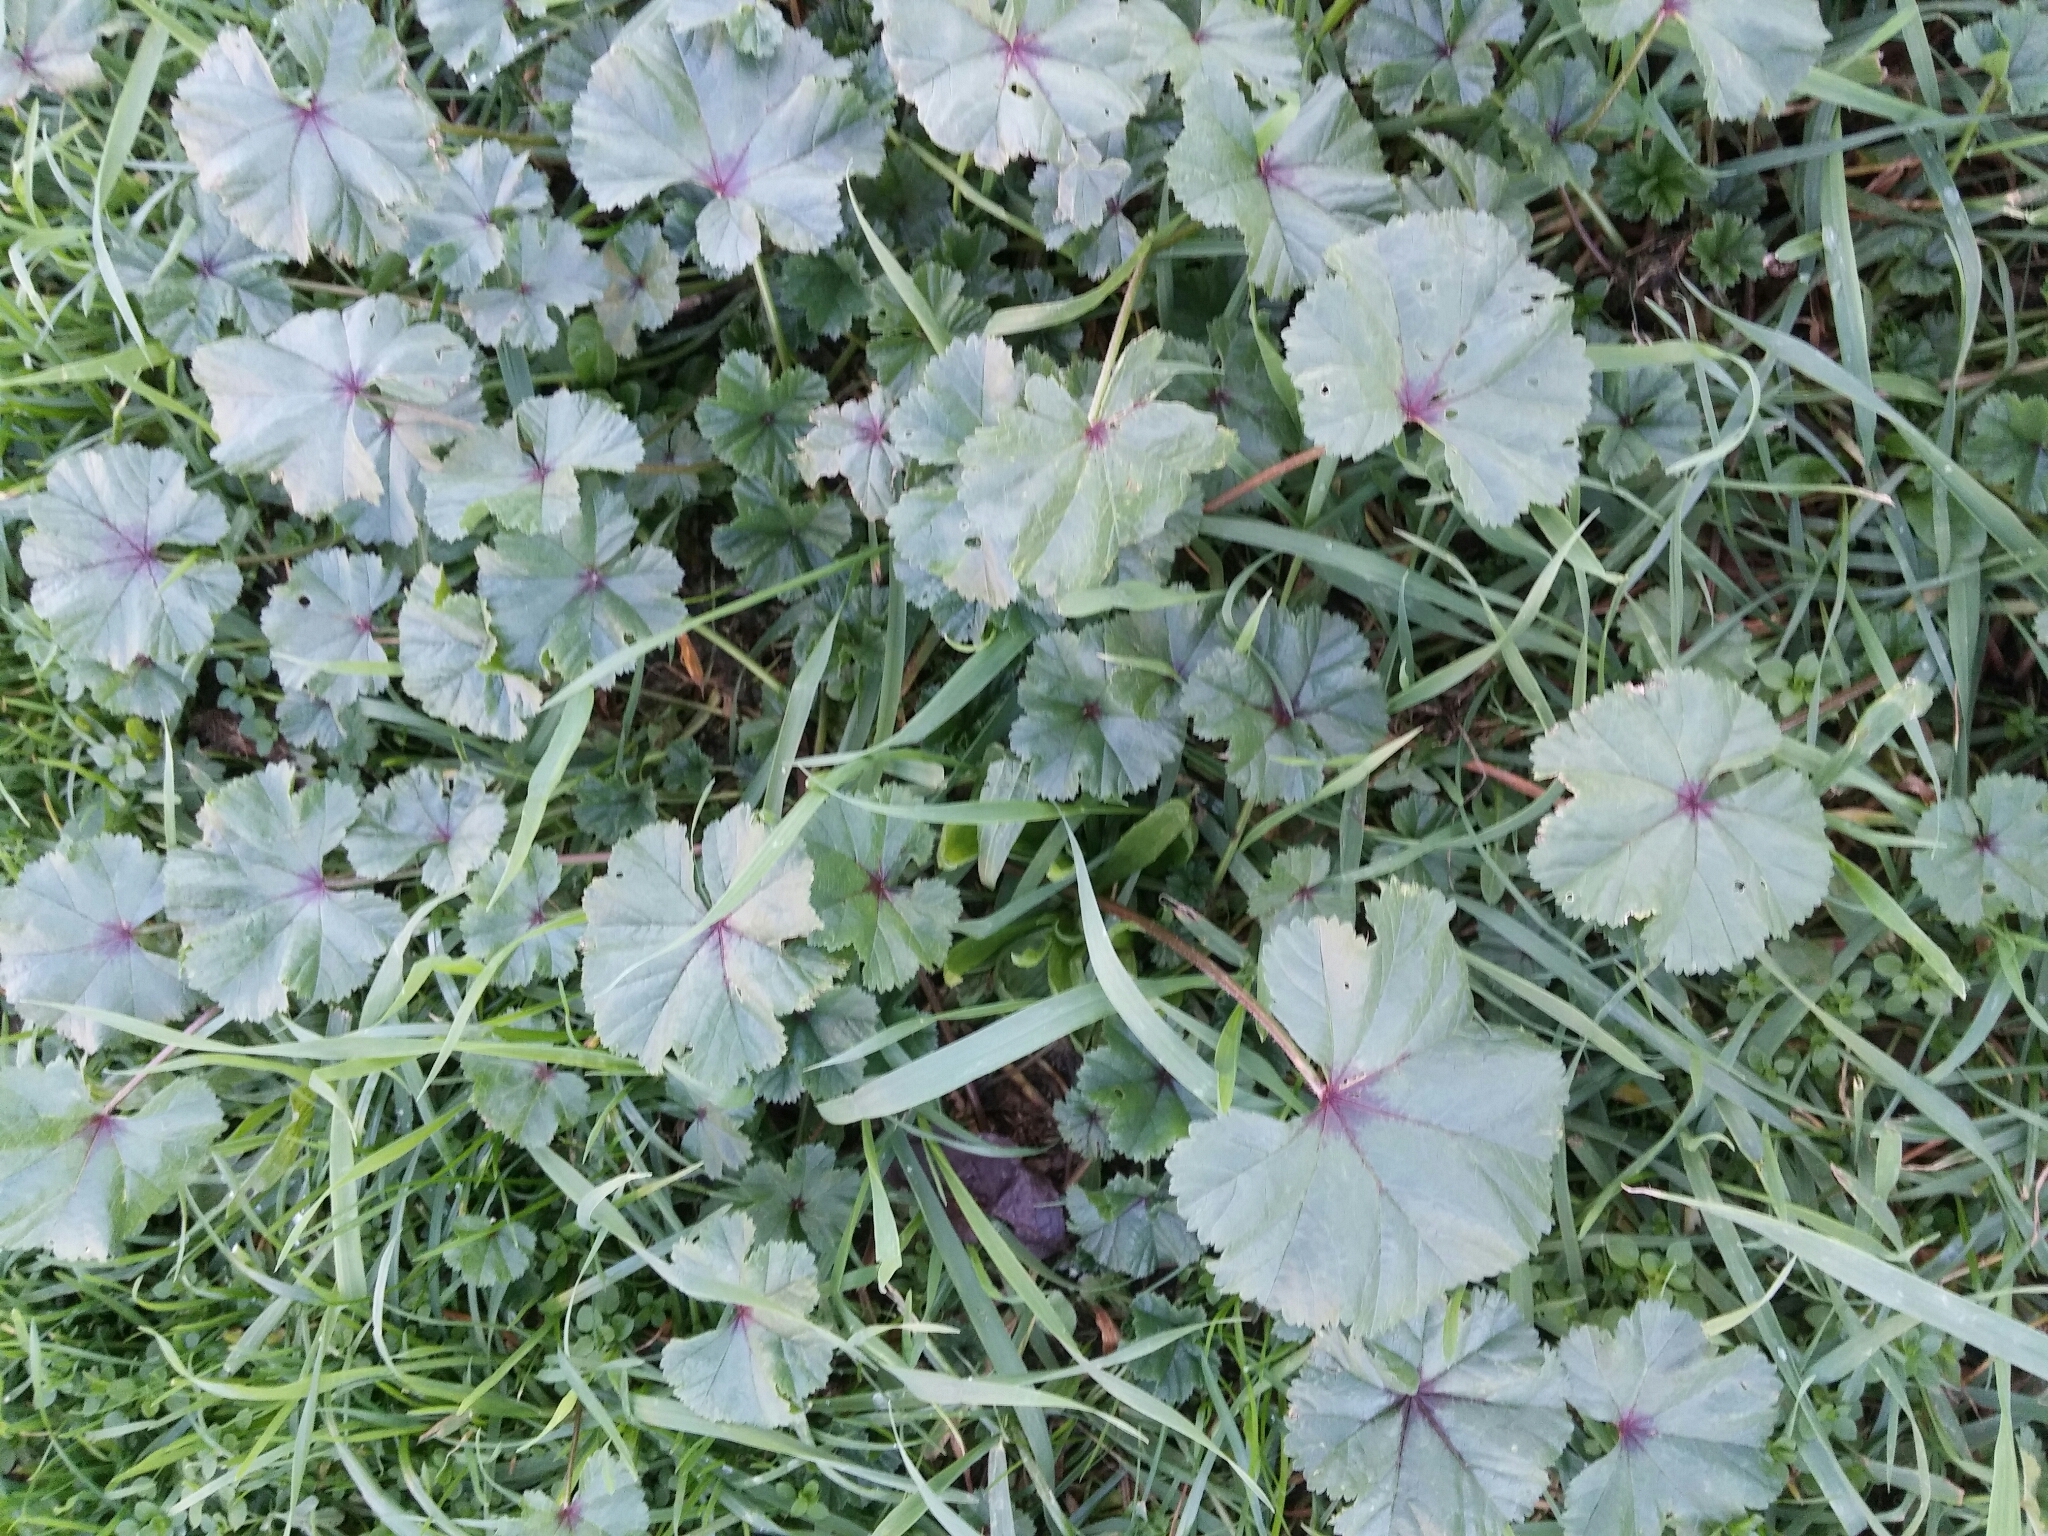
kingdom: Plantae
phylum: Tracheophyta
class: Magnoliopsida
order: Malvales
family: Malvaceae
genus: Malva
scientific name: Malva sylvestris
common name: Common mallow
